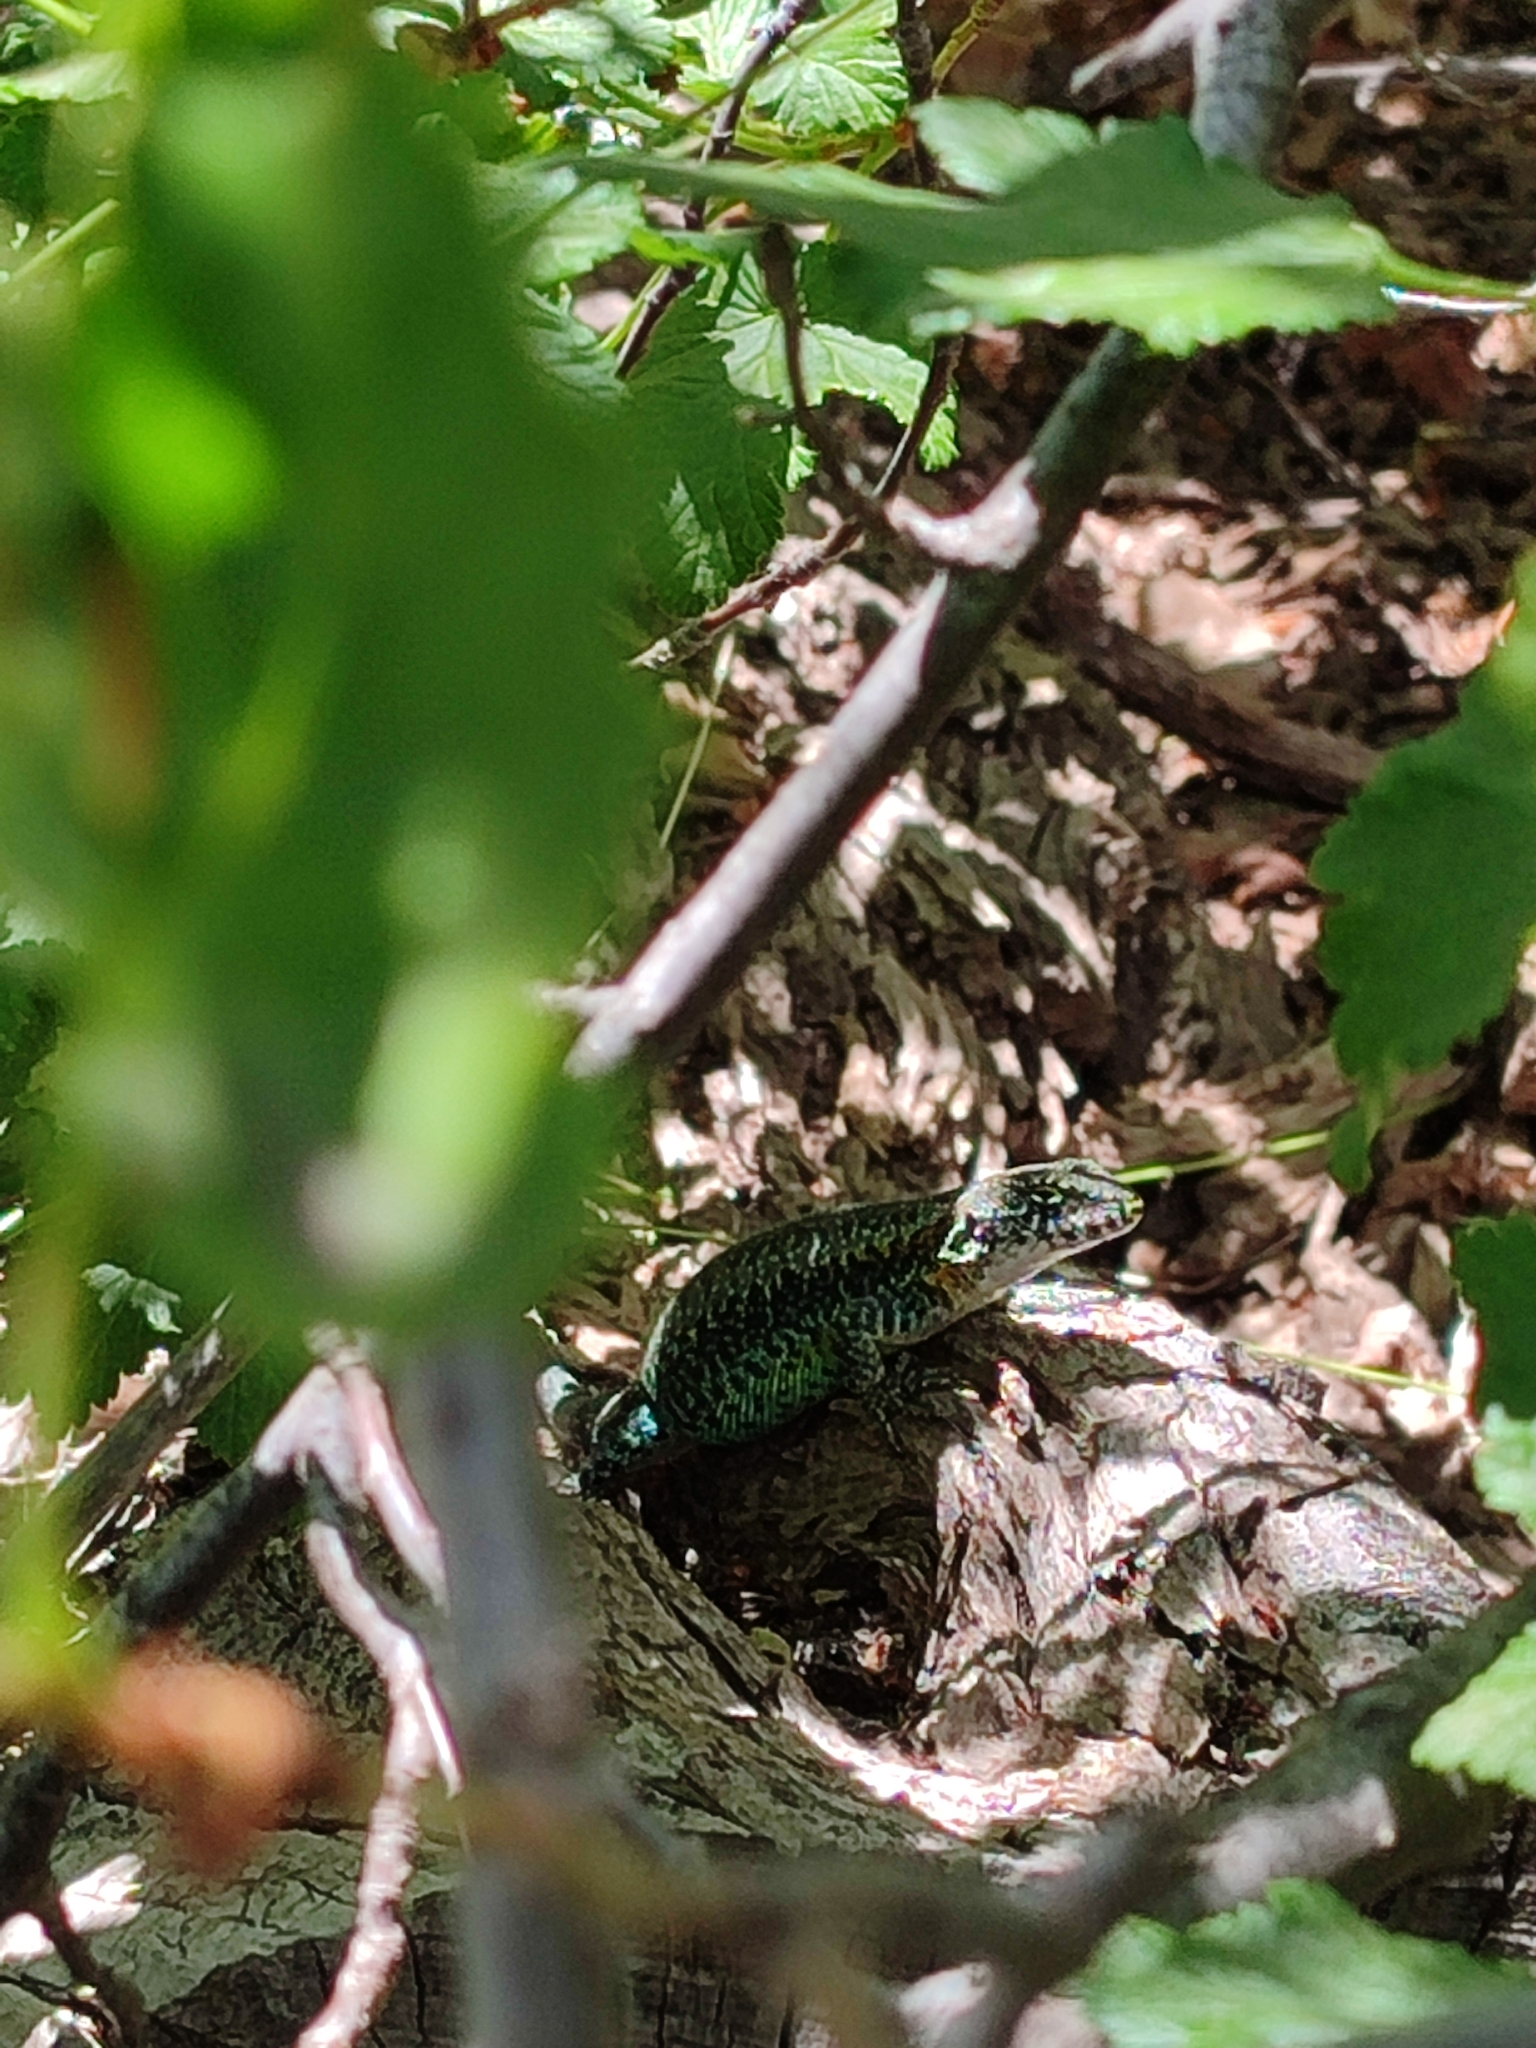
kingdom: Animalia
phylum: Chordata
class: Squamata
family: Liolaemidae
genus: Liolaemus
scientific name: Liolaemus pictus
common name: Painted tree iguana
